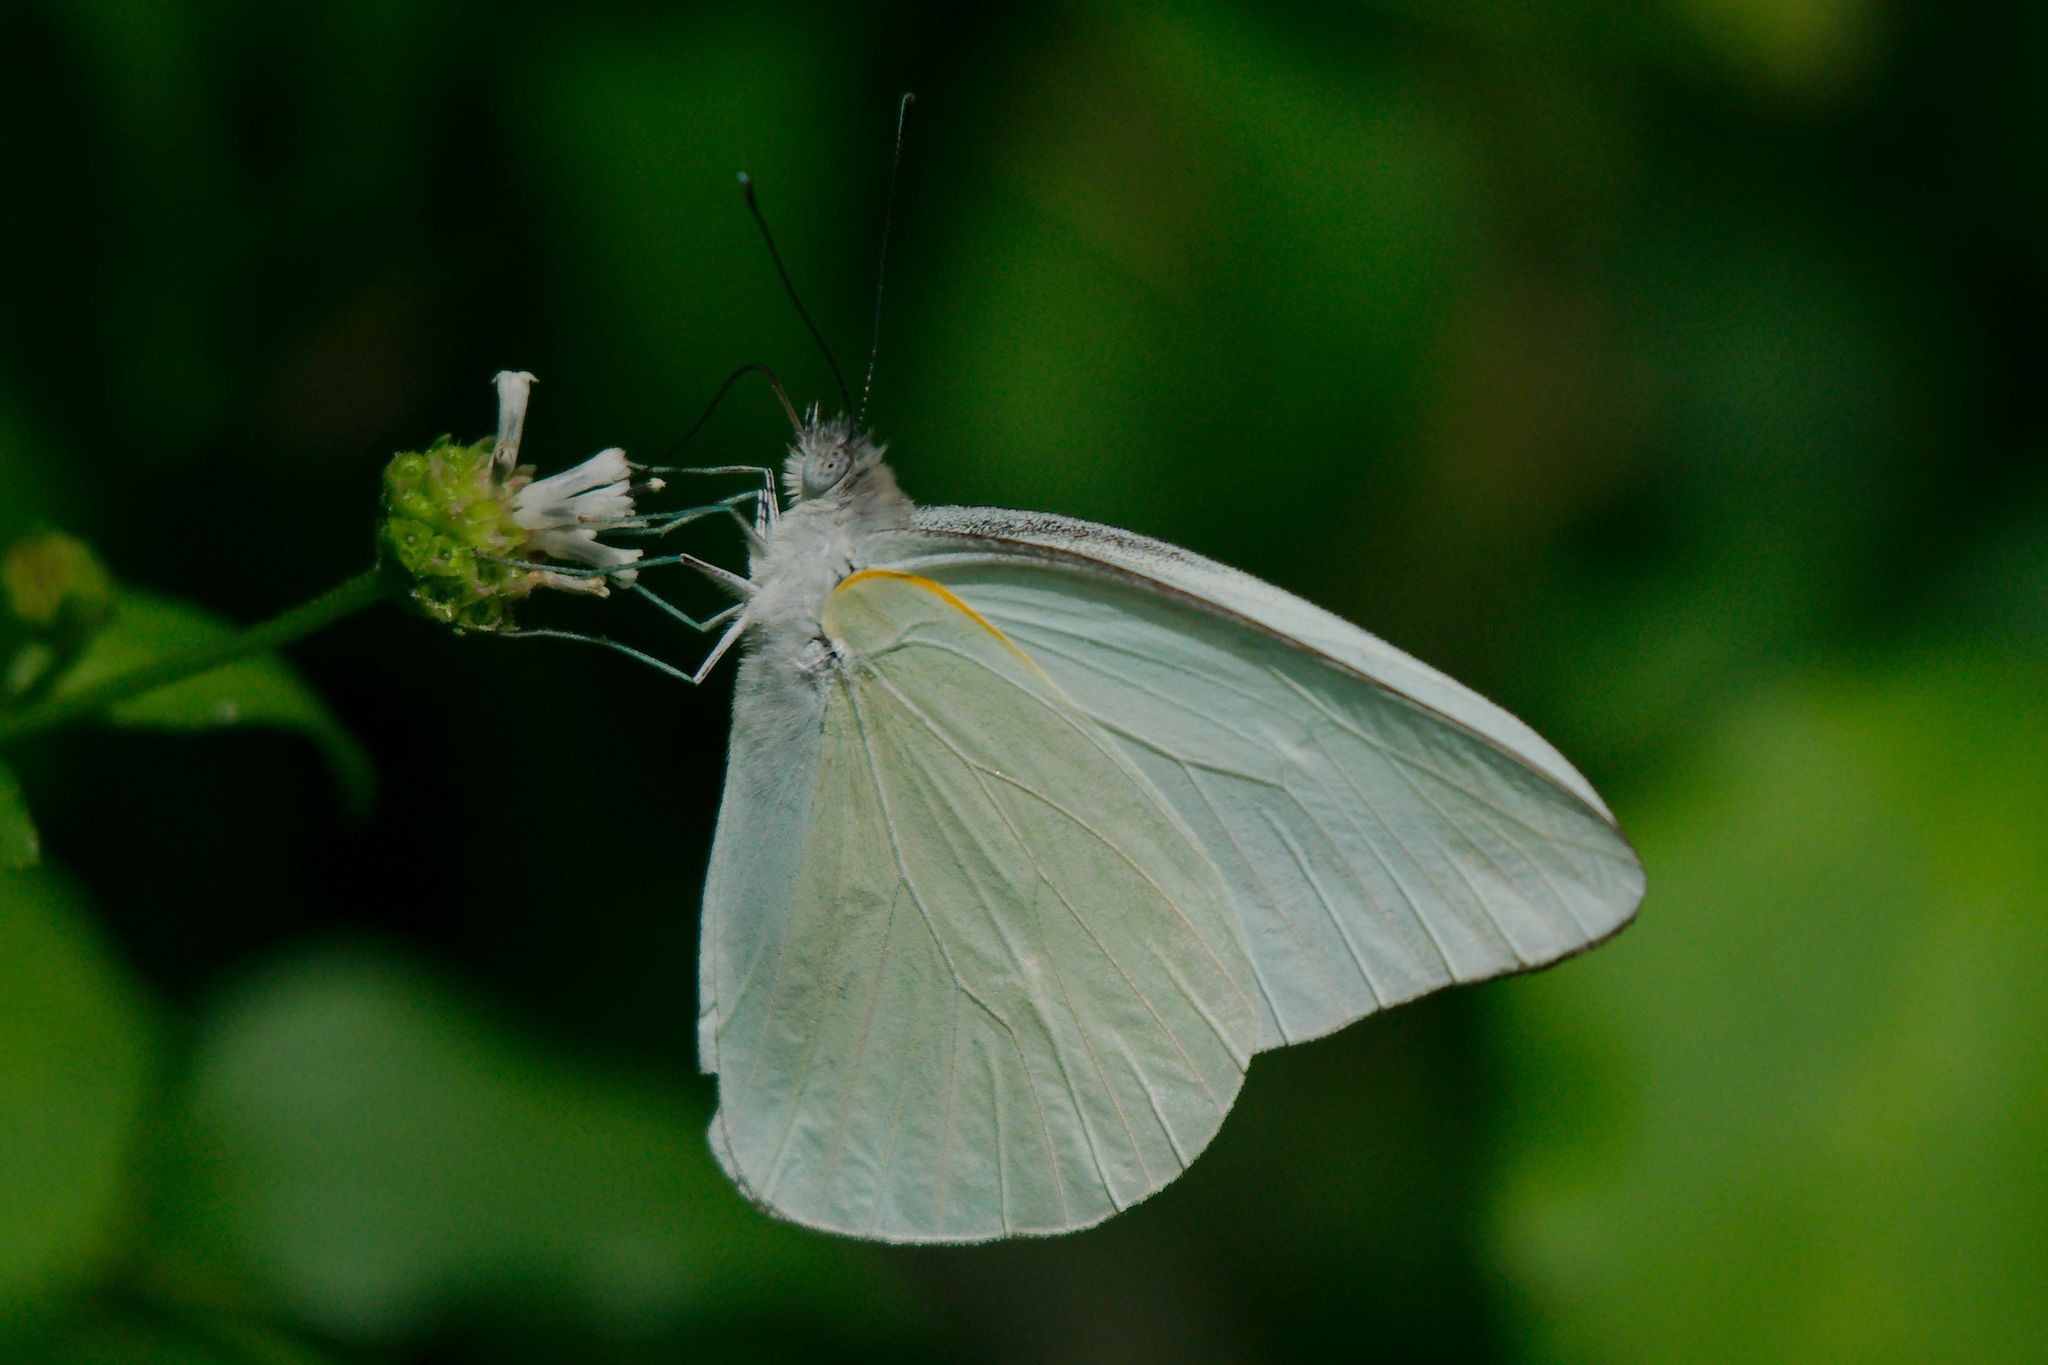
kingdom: Animalia
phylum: Arthropoda
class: Insecta
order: Lepidoptera
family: Pieridae
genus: Ascia
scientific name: Ascia monuste
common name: Great southern white
